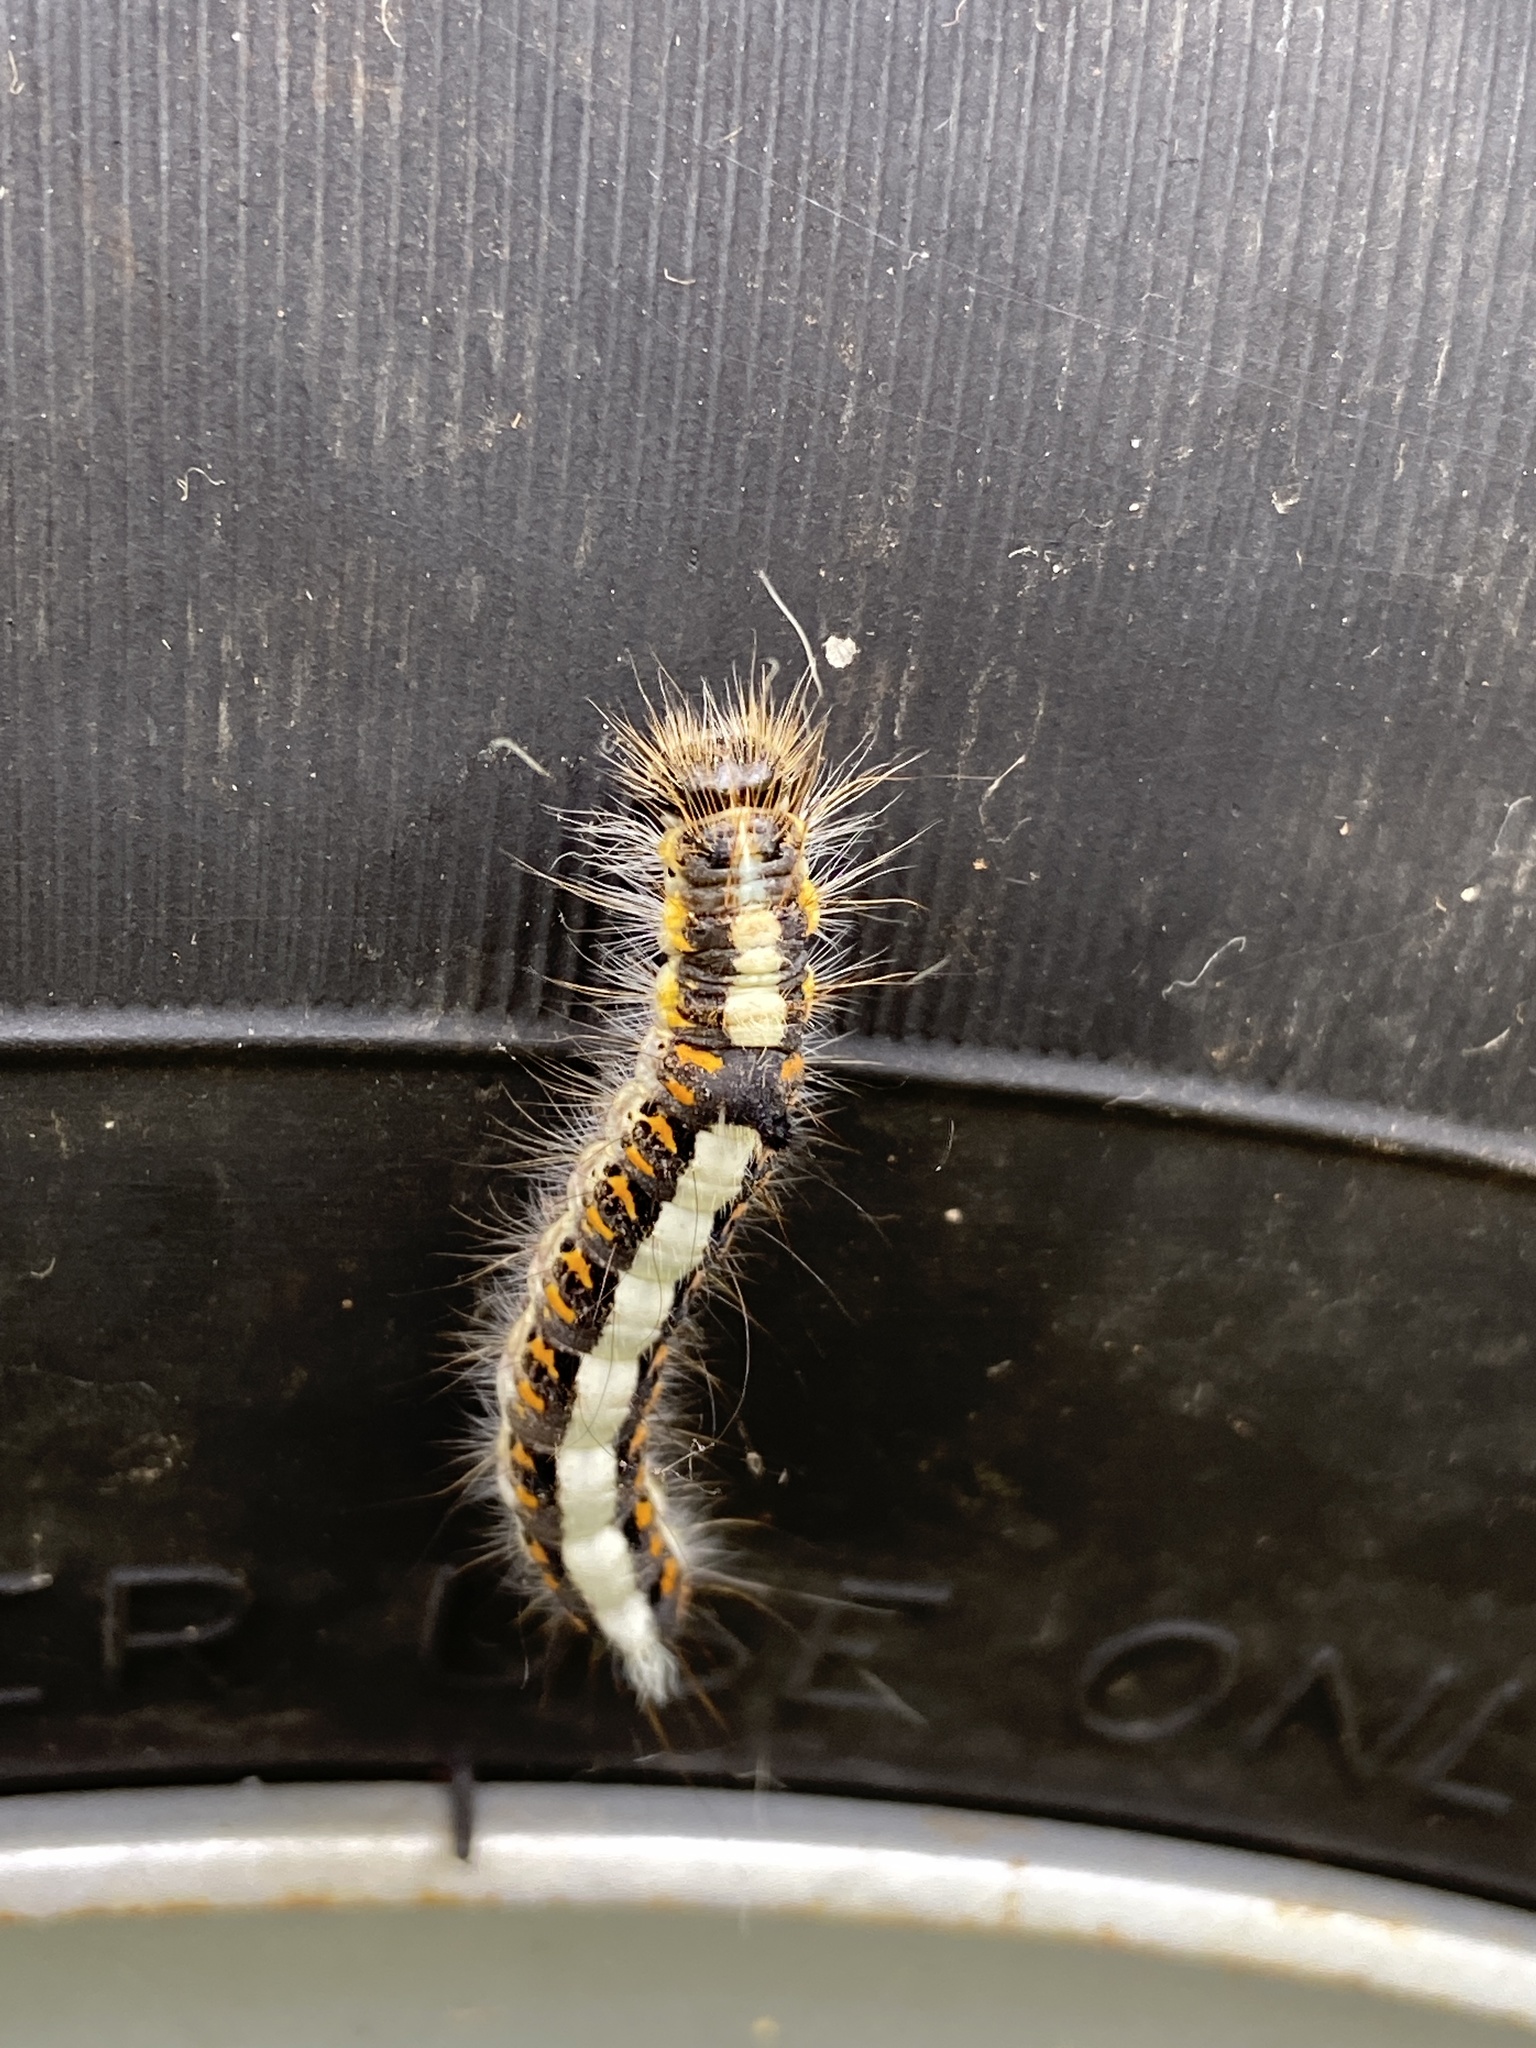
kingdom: Animalia
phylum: Arthropoda
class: Insecta
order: Lepidoptera
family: Noctuidae
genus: Acronicta
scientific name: Acronicta psi
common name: Grey dagger
